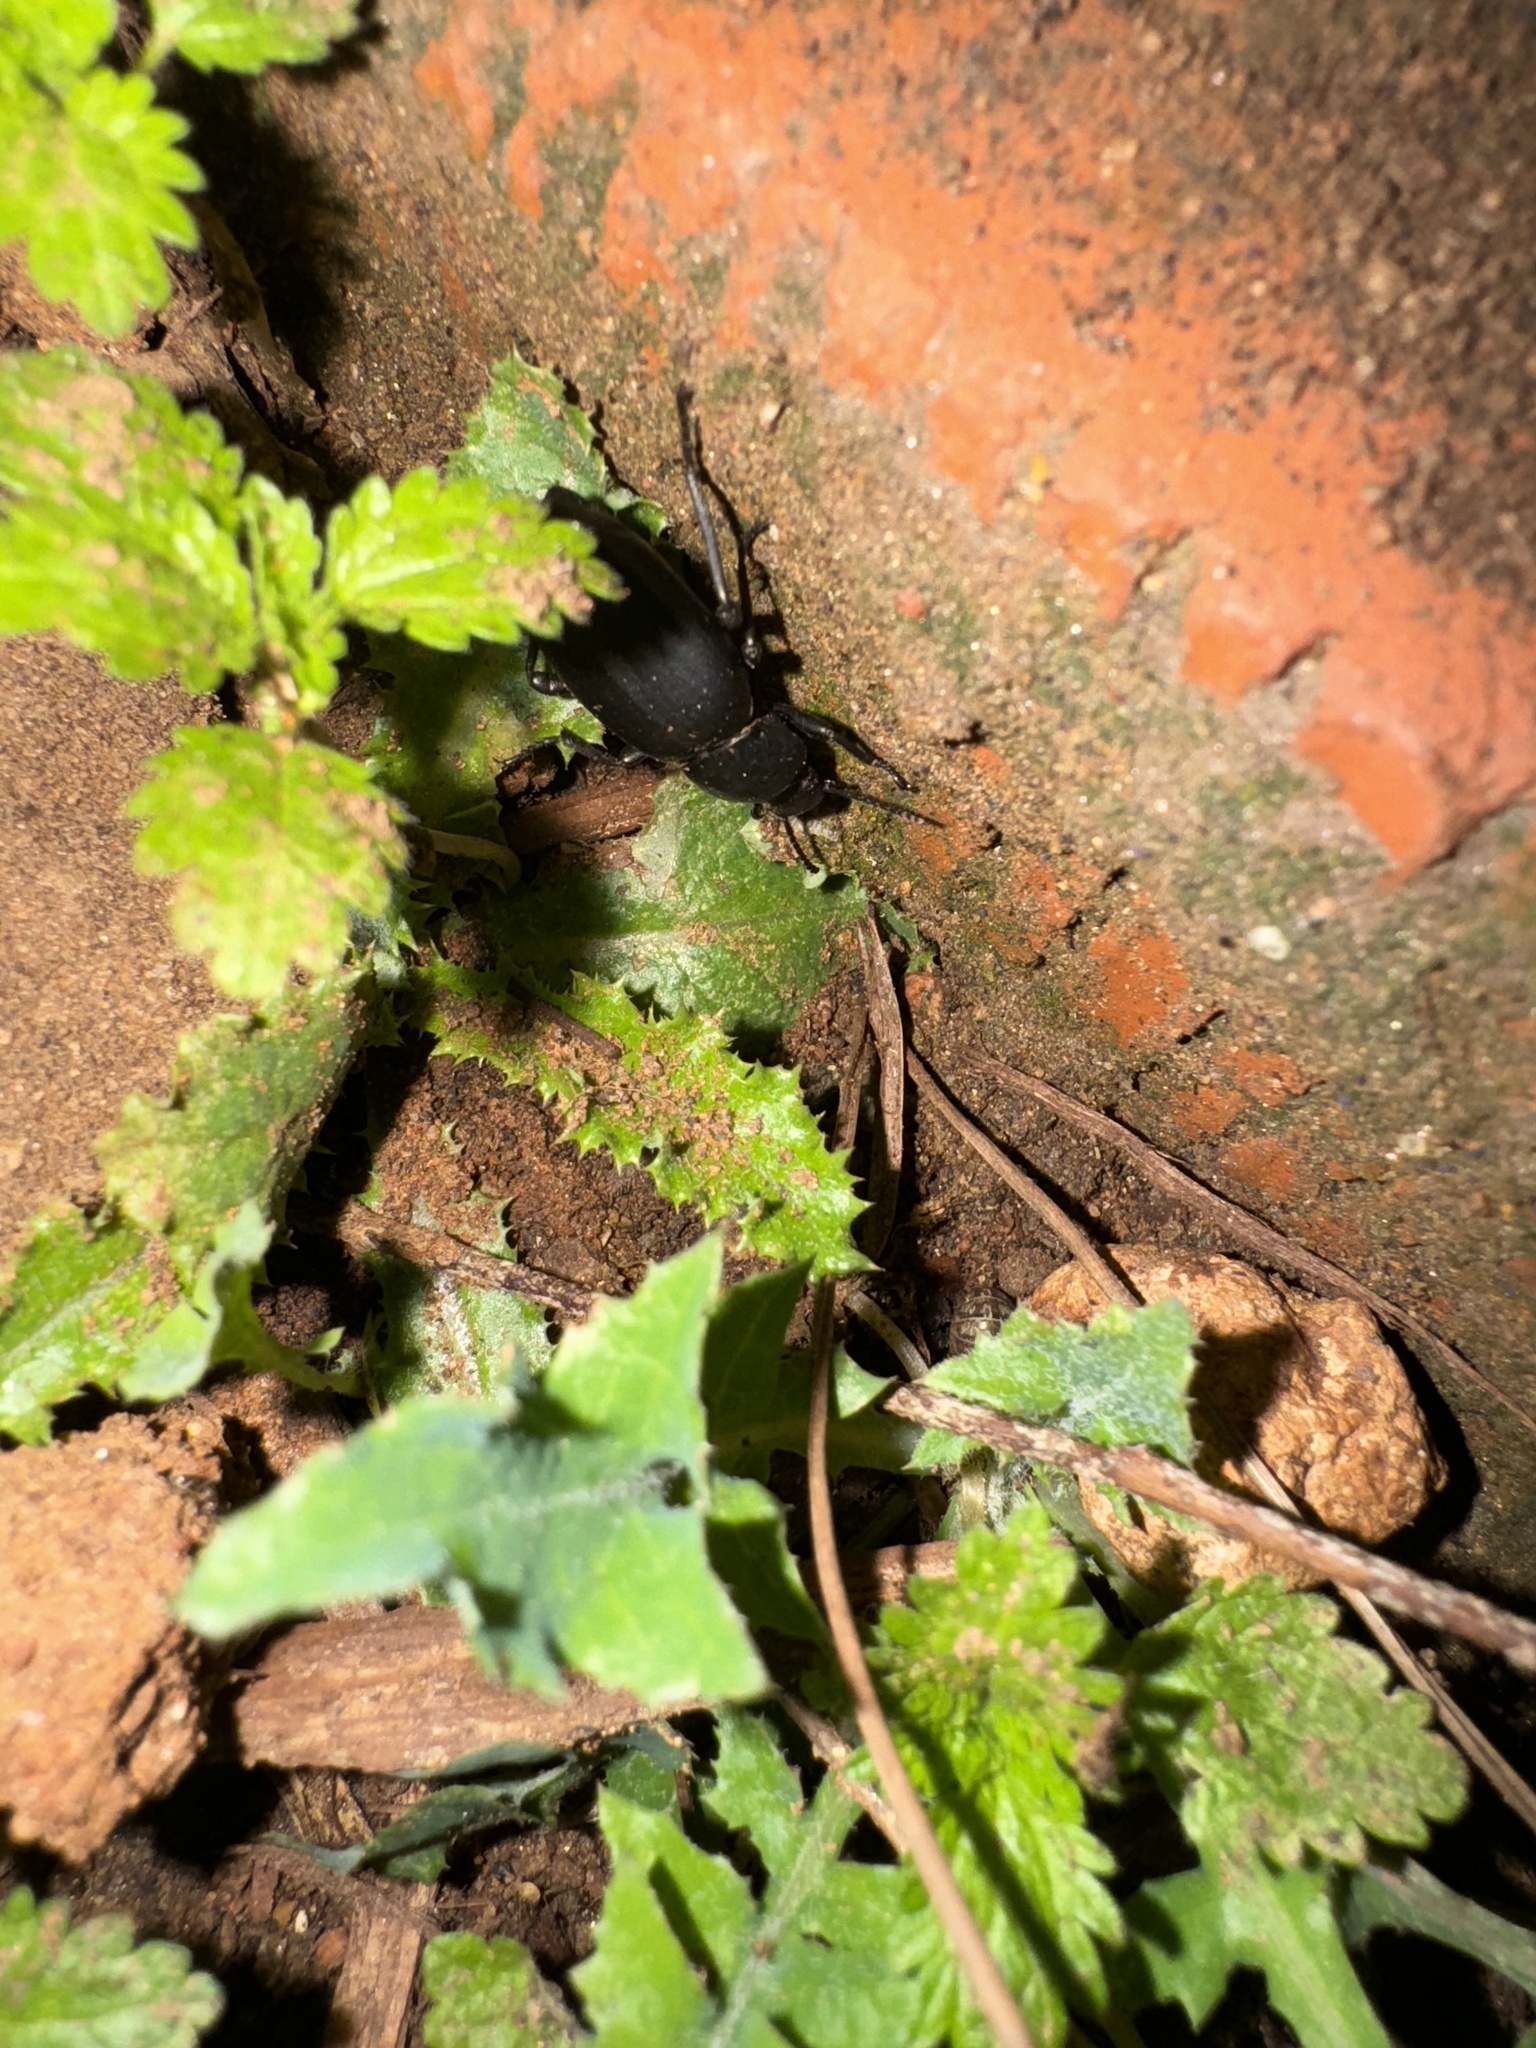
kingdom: Animalia
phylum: Arthropoda
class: Insecta
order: Coleoptera
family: Tenebrionidae
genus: Eleodes
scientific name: Eleodes carbonaria
